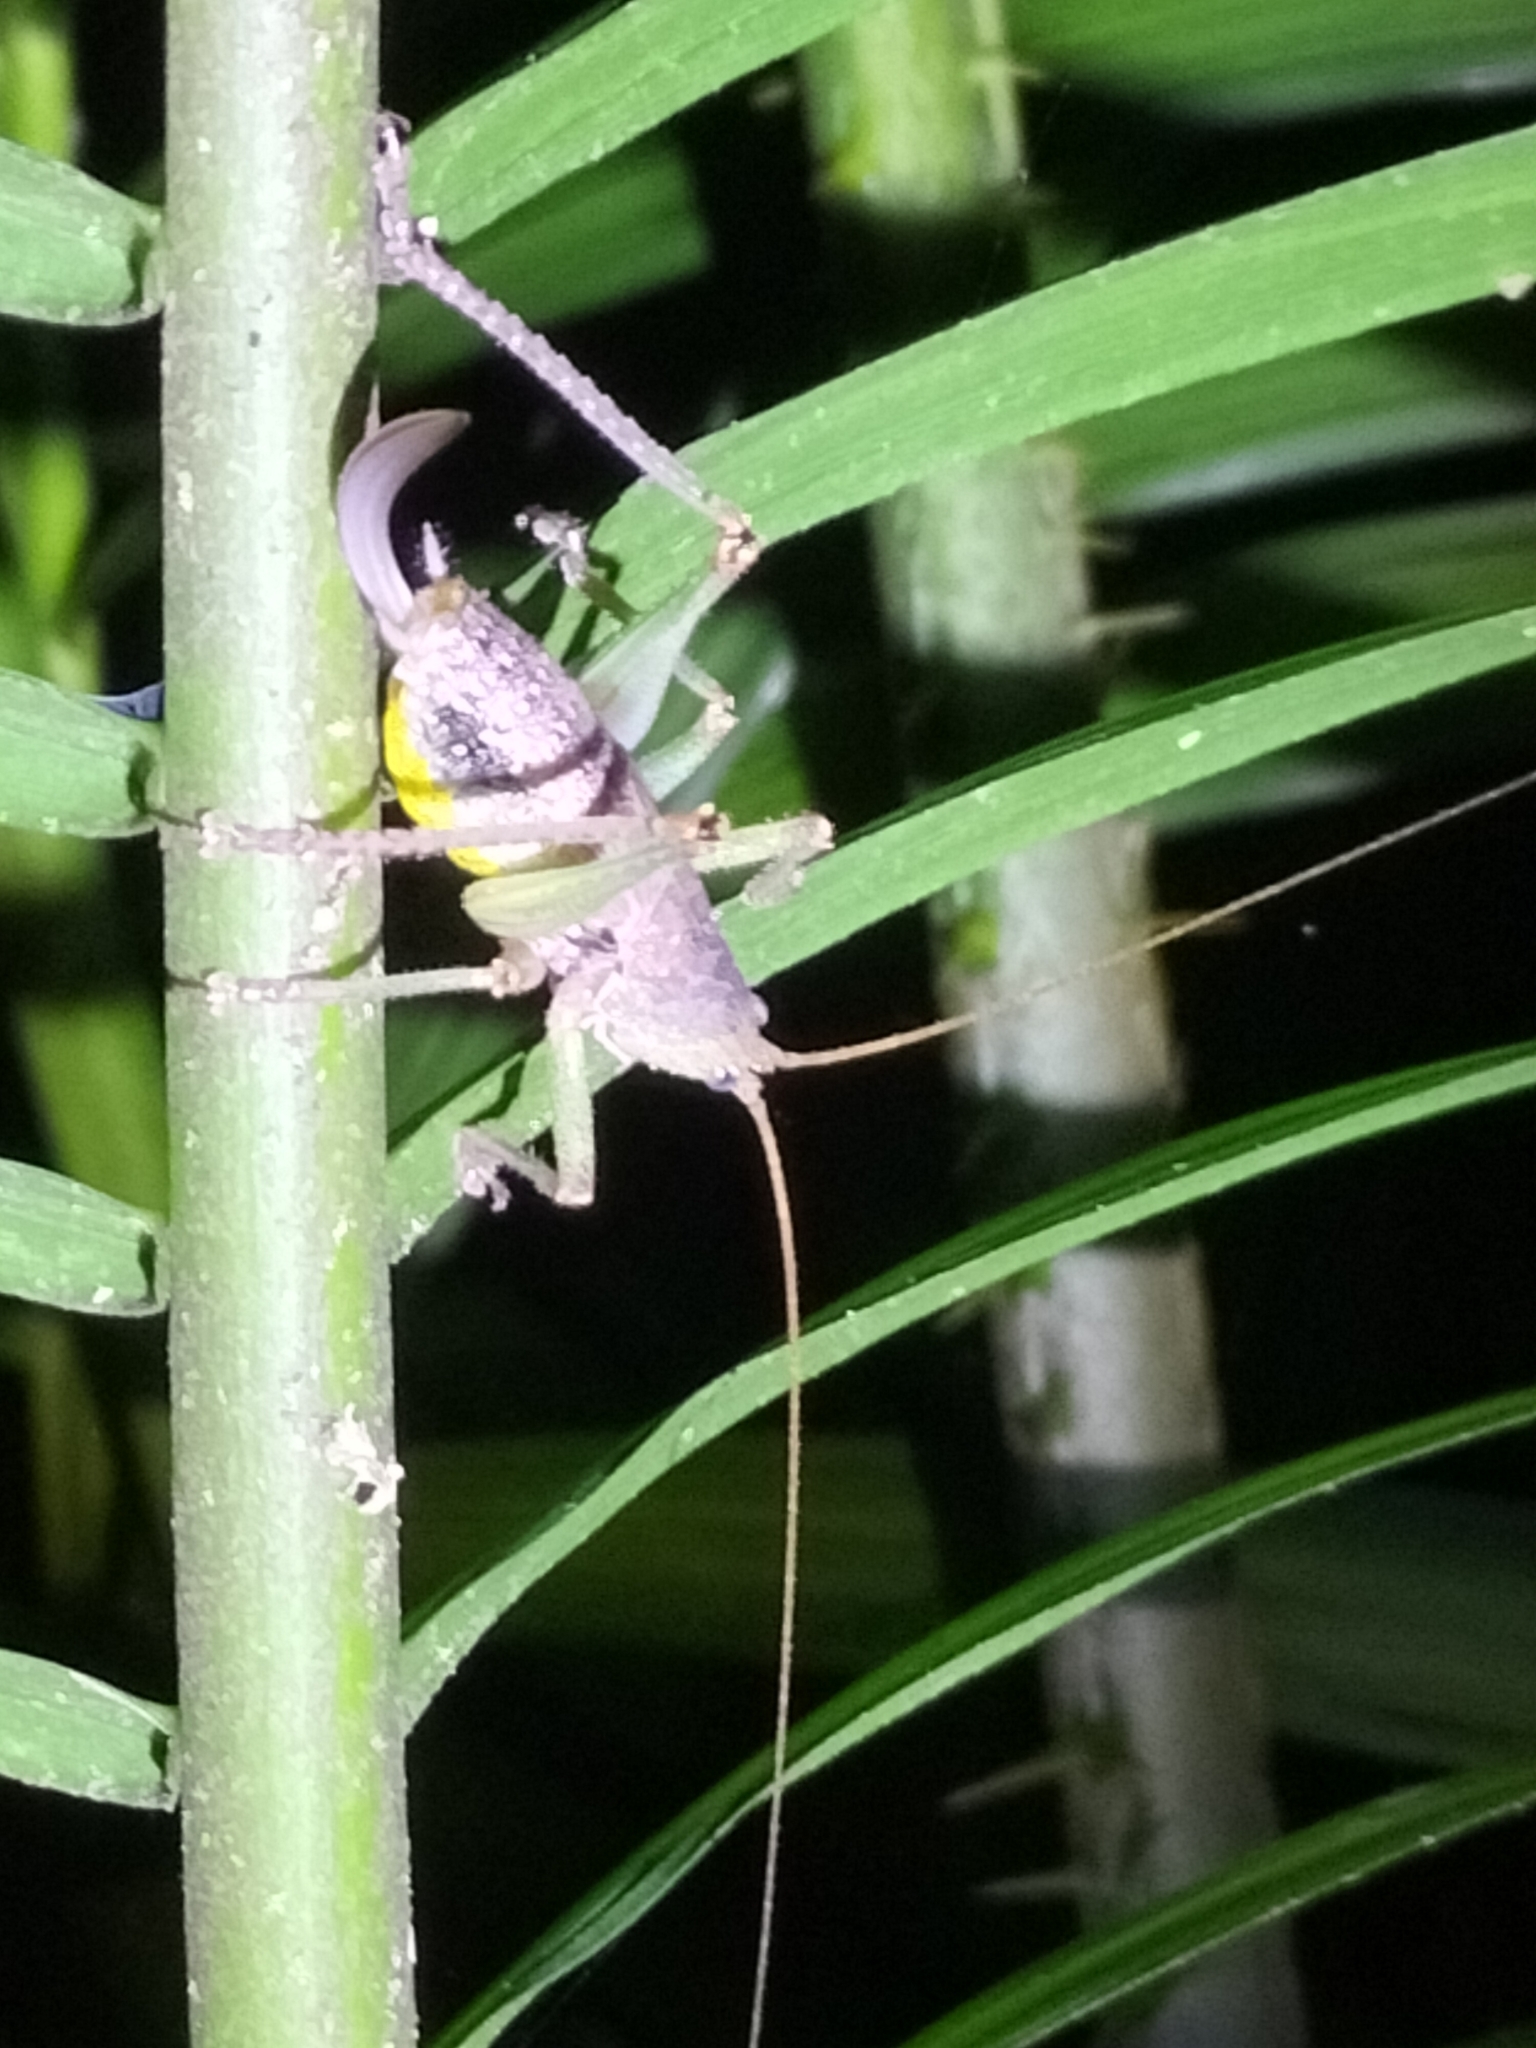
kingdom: Animalia
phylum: Arthropoda
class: Insecta
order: Orthoptera
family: Tettigoniidae
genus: Austrosalomona
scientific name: Austrosalomona destructor
